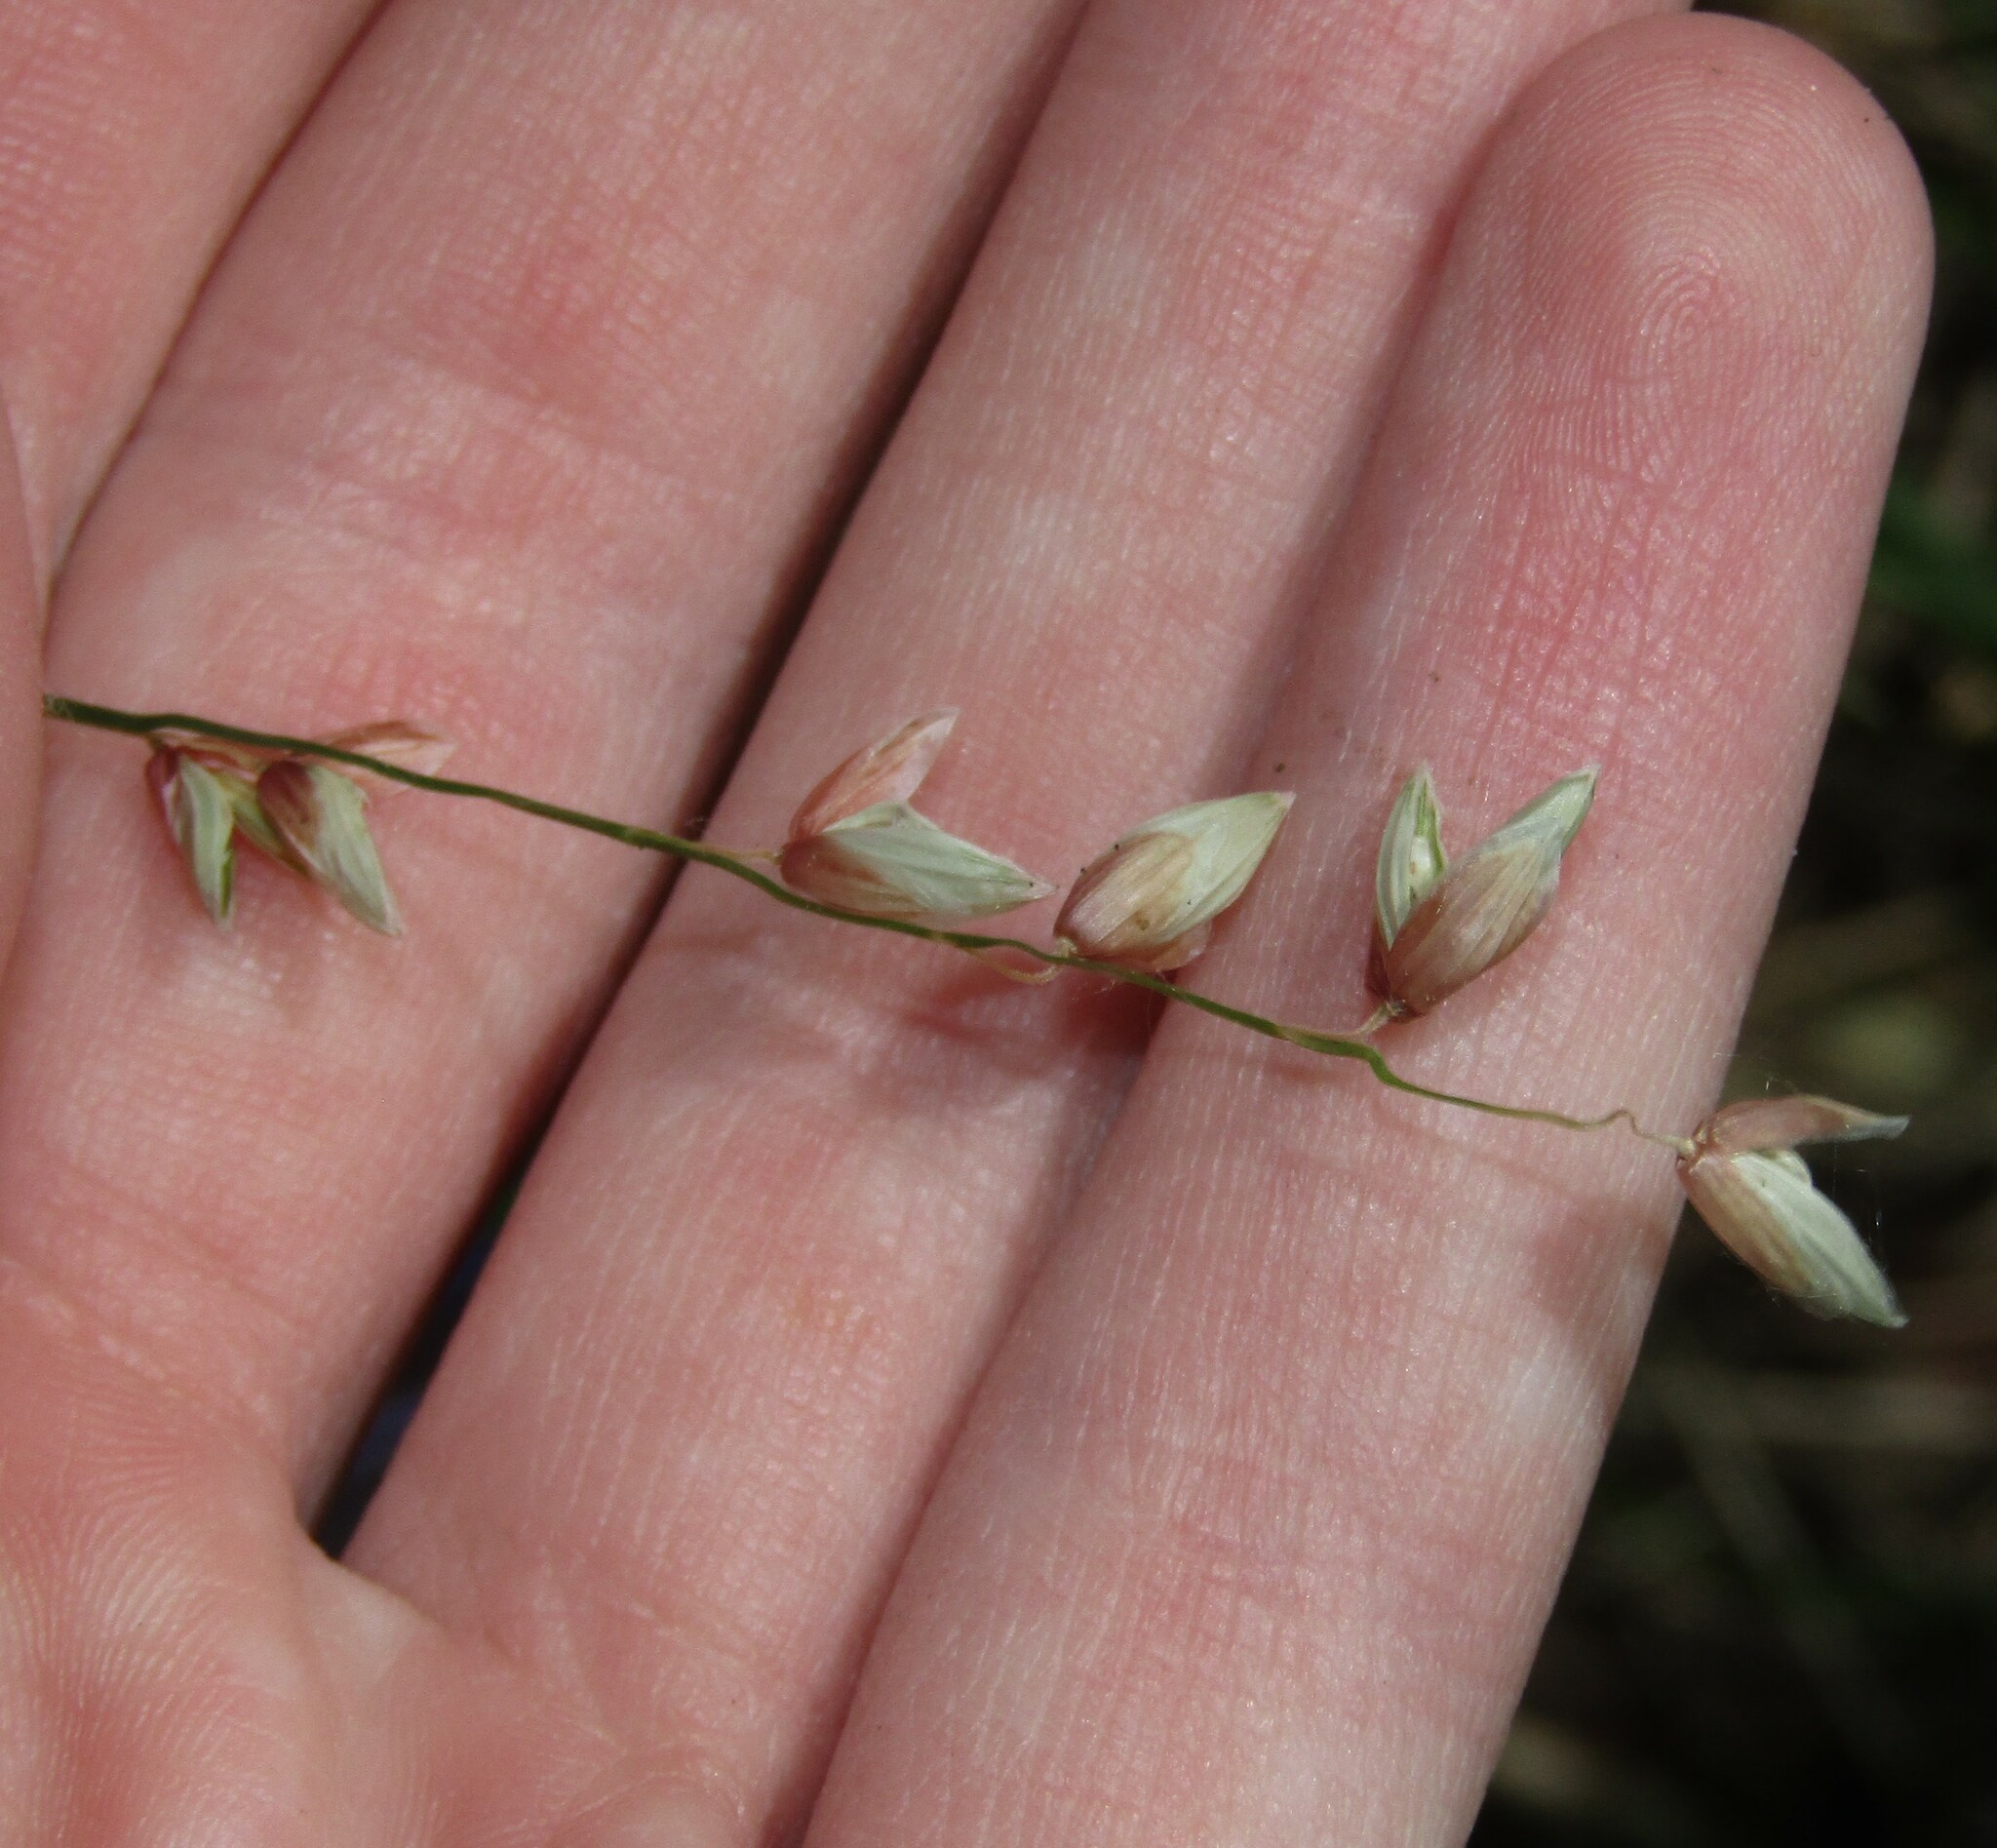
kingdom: Plantae
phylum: Tracheophyta
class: Liliopsida
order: Poales
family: Poaceae
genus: Melica
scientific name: Melica nutans
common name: Mountain melick
